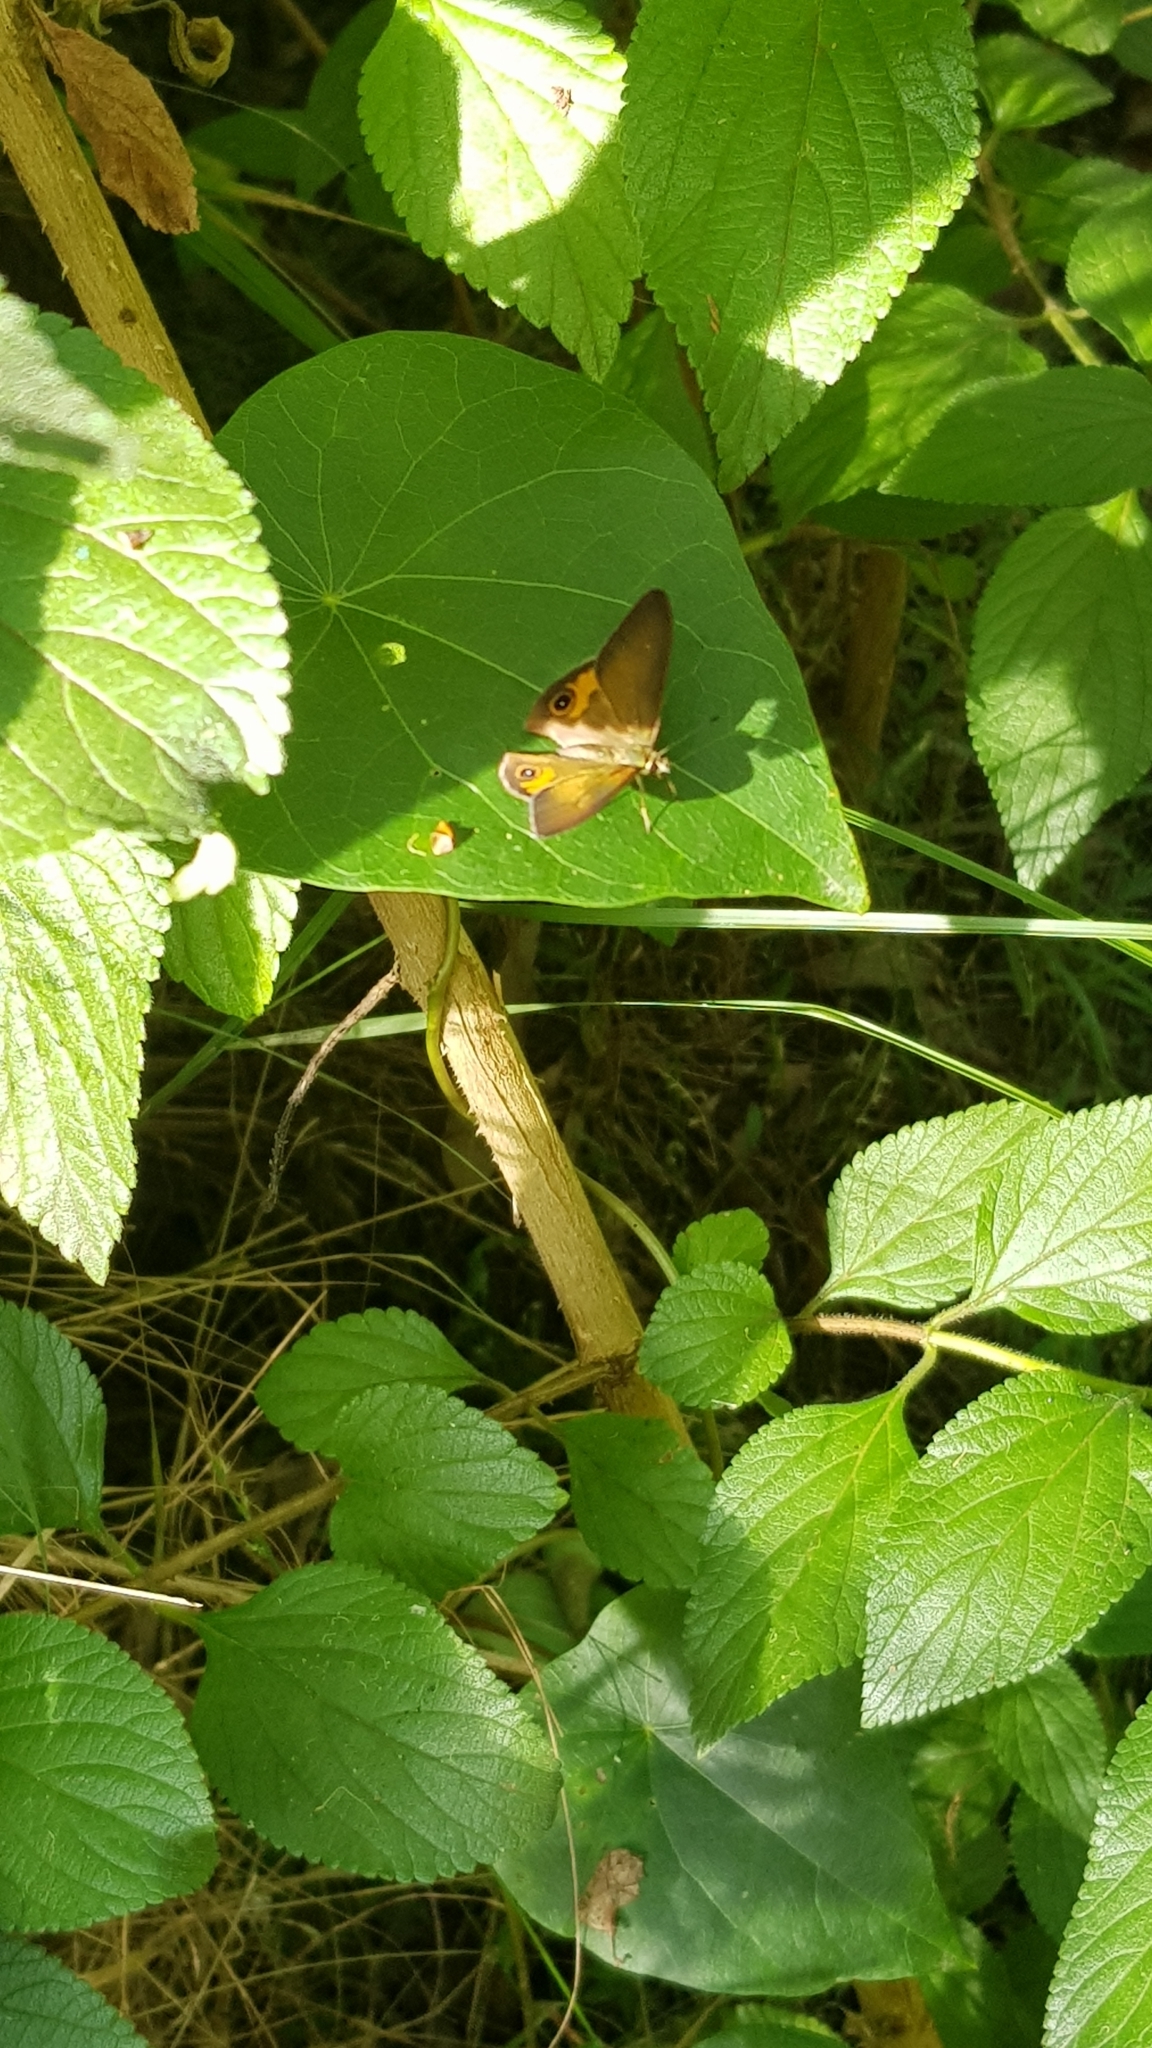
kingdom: Animalia
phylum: Arthropoda
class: Insecta
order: Lepidoptera
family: Nymphalidae
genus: Hypocysta
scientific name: Hypocysta metirius
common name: Brown ringlet
